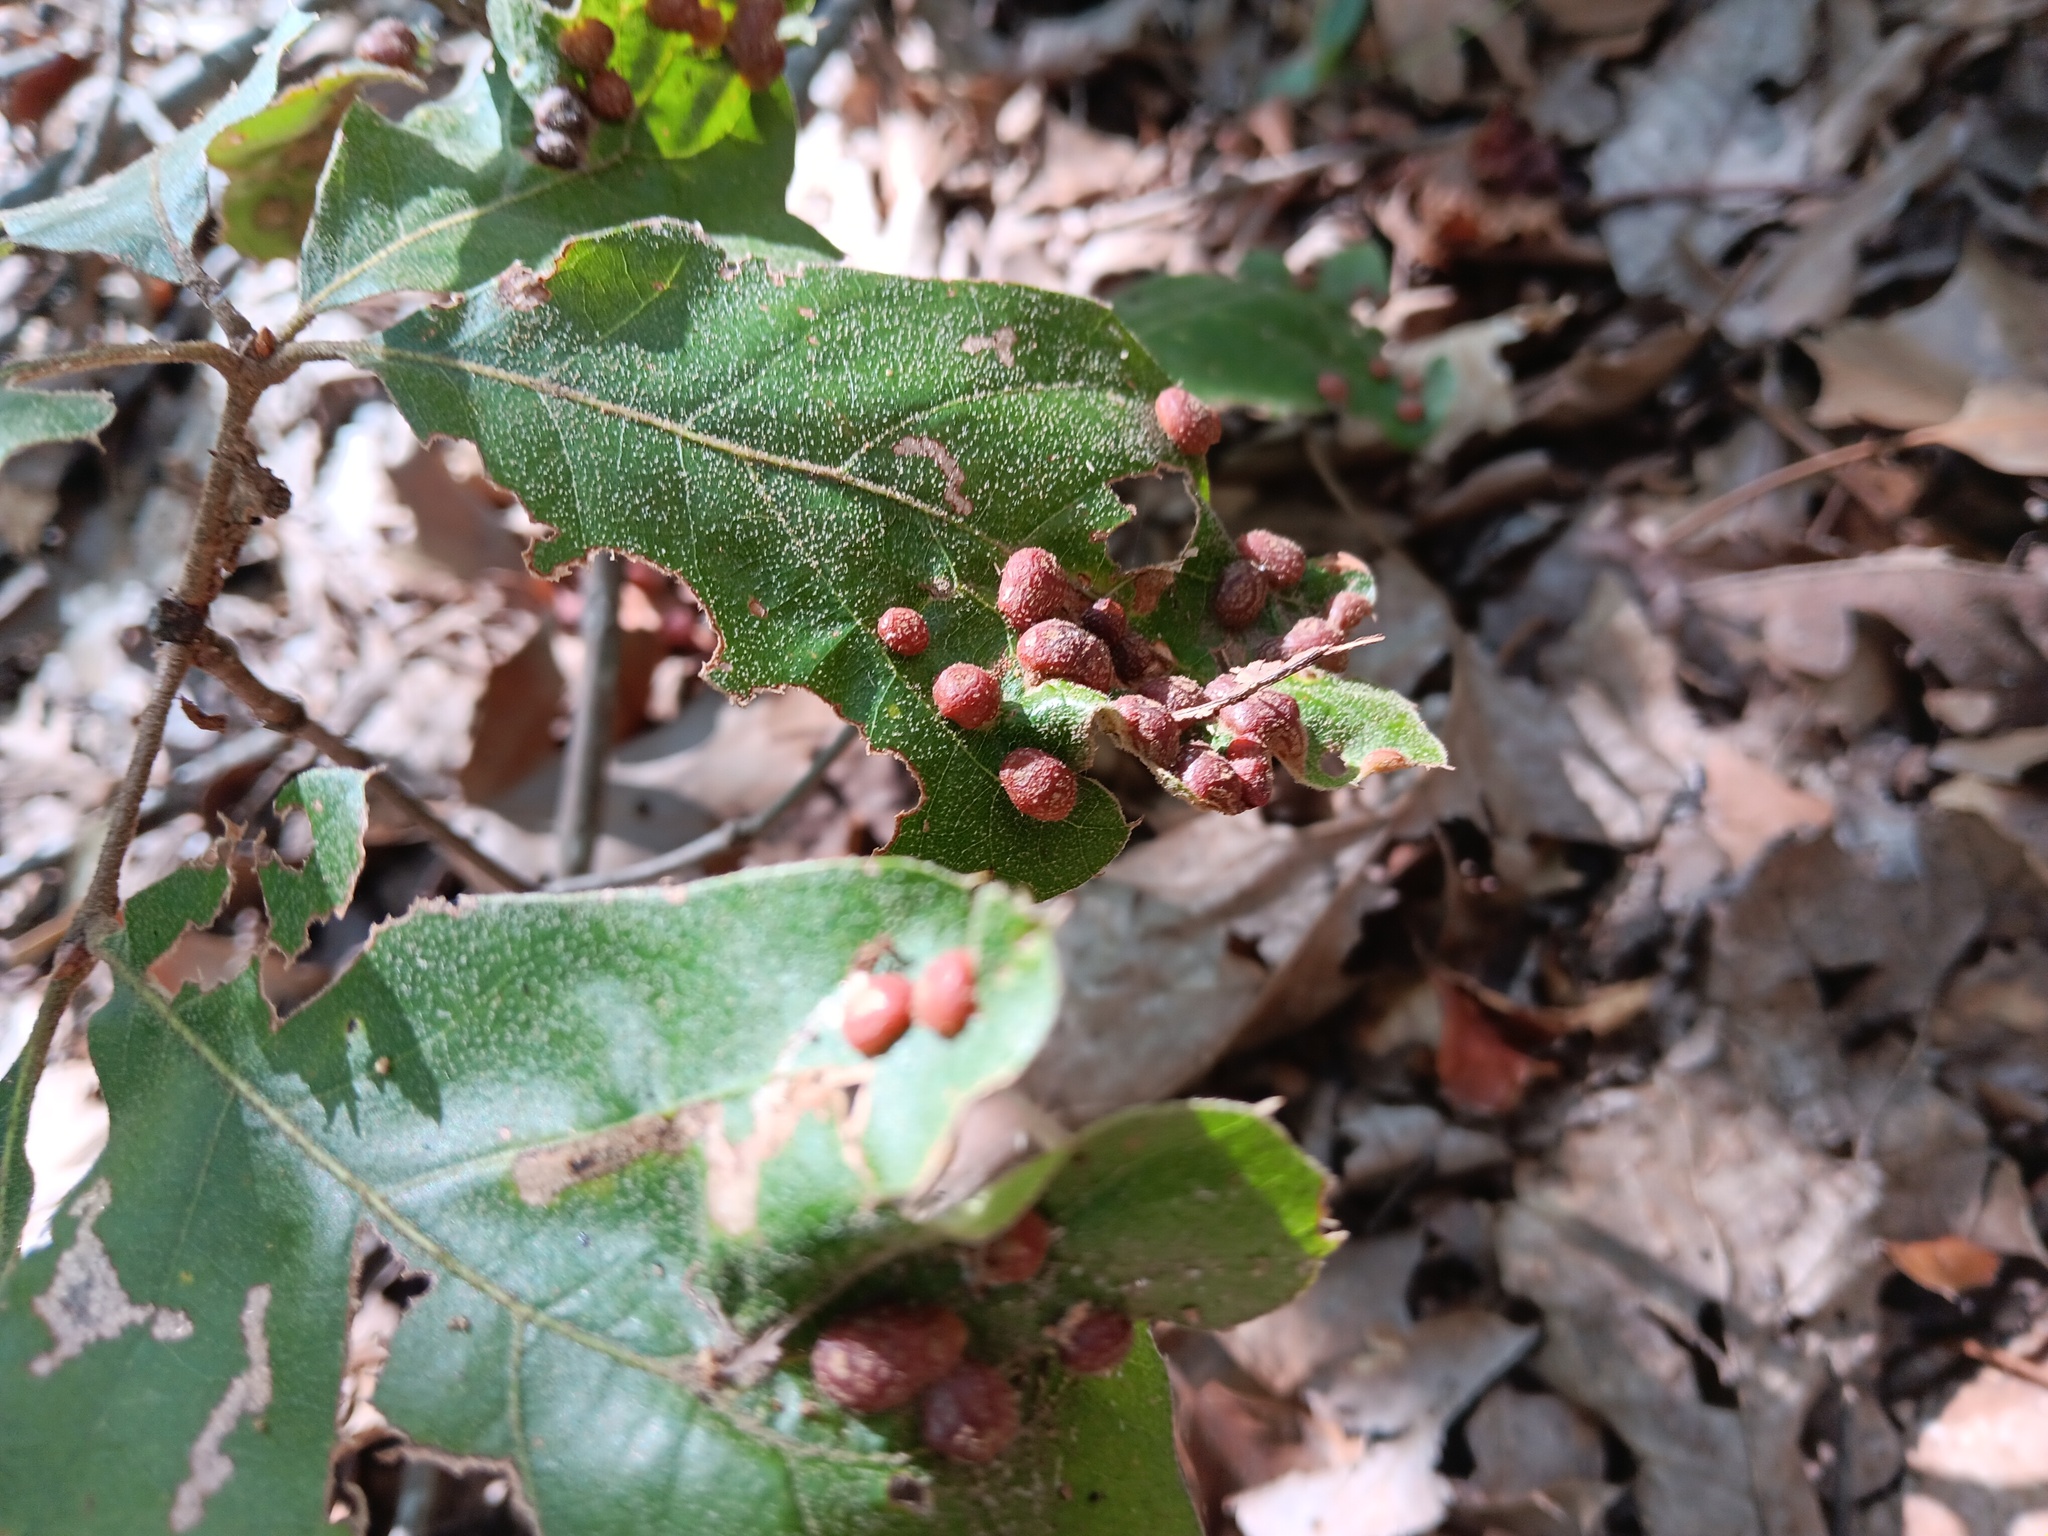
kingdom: Animalia
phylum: Arthropoda
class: Insecta
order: Diptera
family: Cecidomyiidae
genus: Polystepha
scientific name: Polystepha pilulae
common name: Oak leaf gall midge
